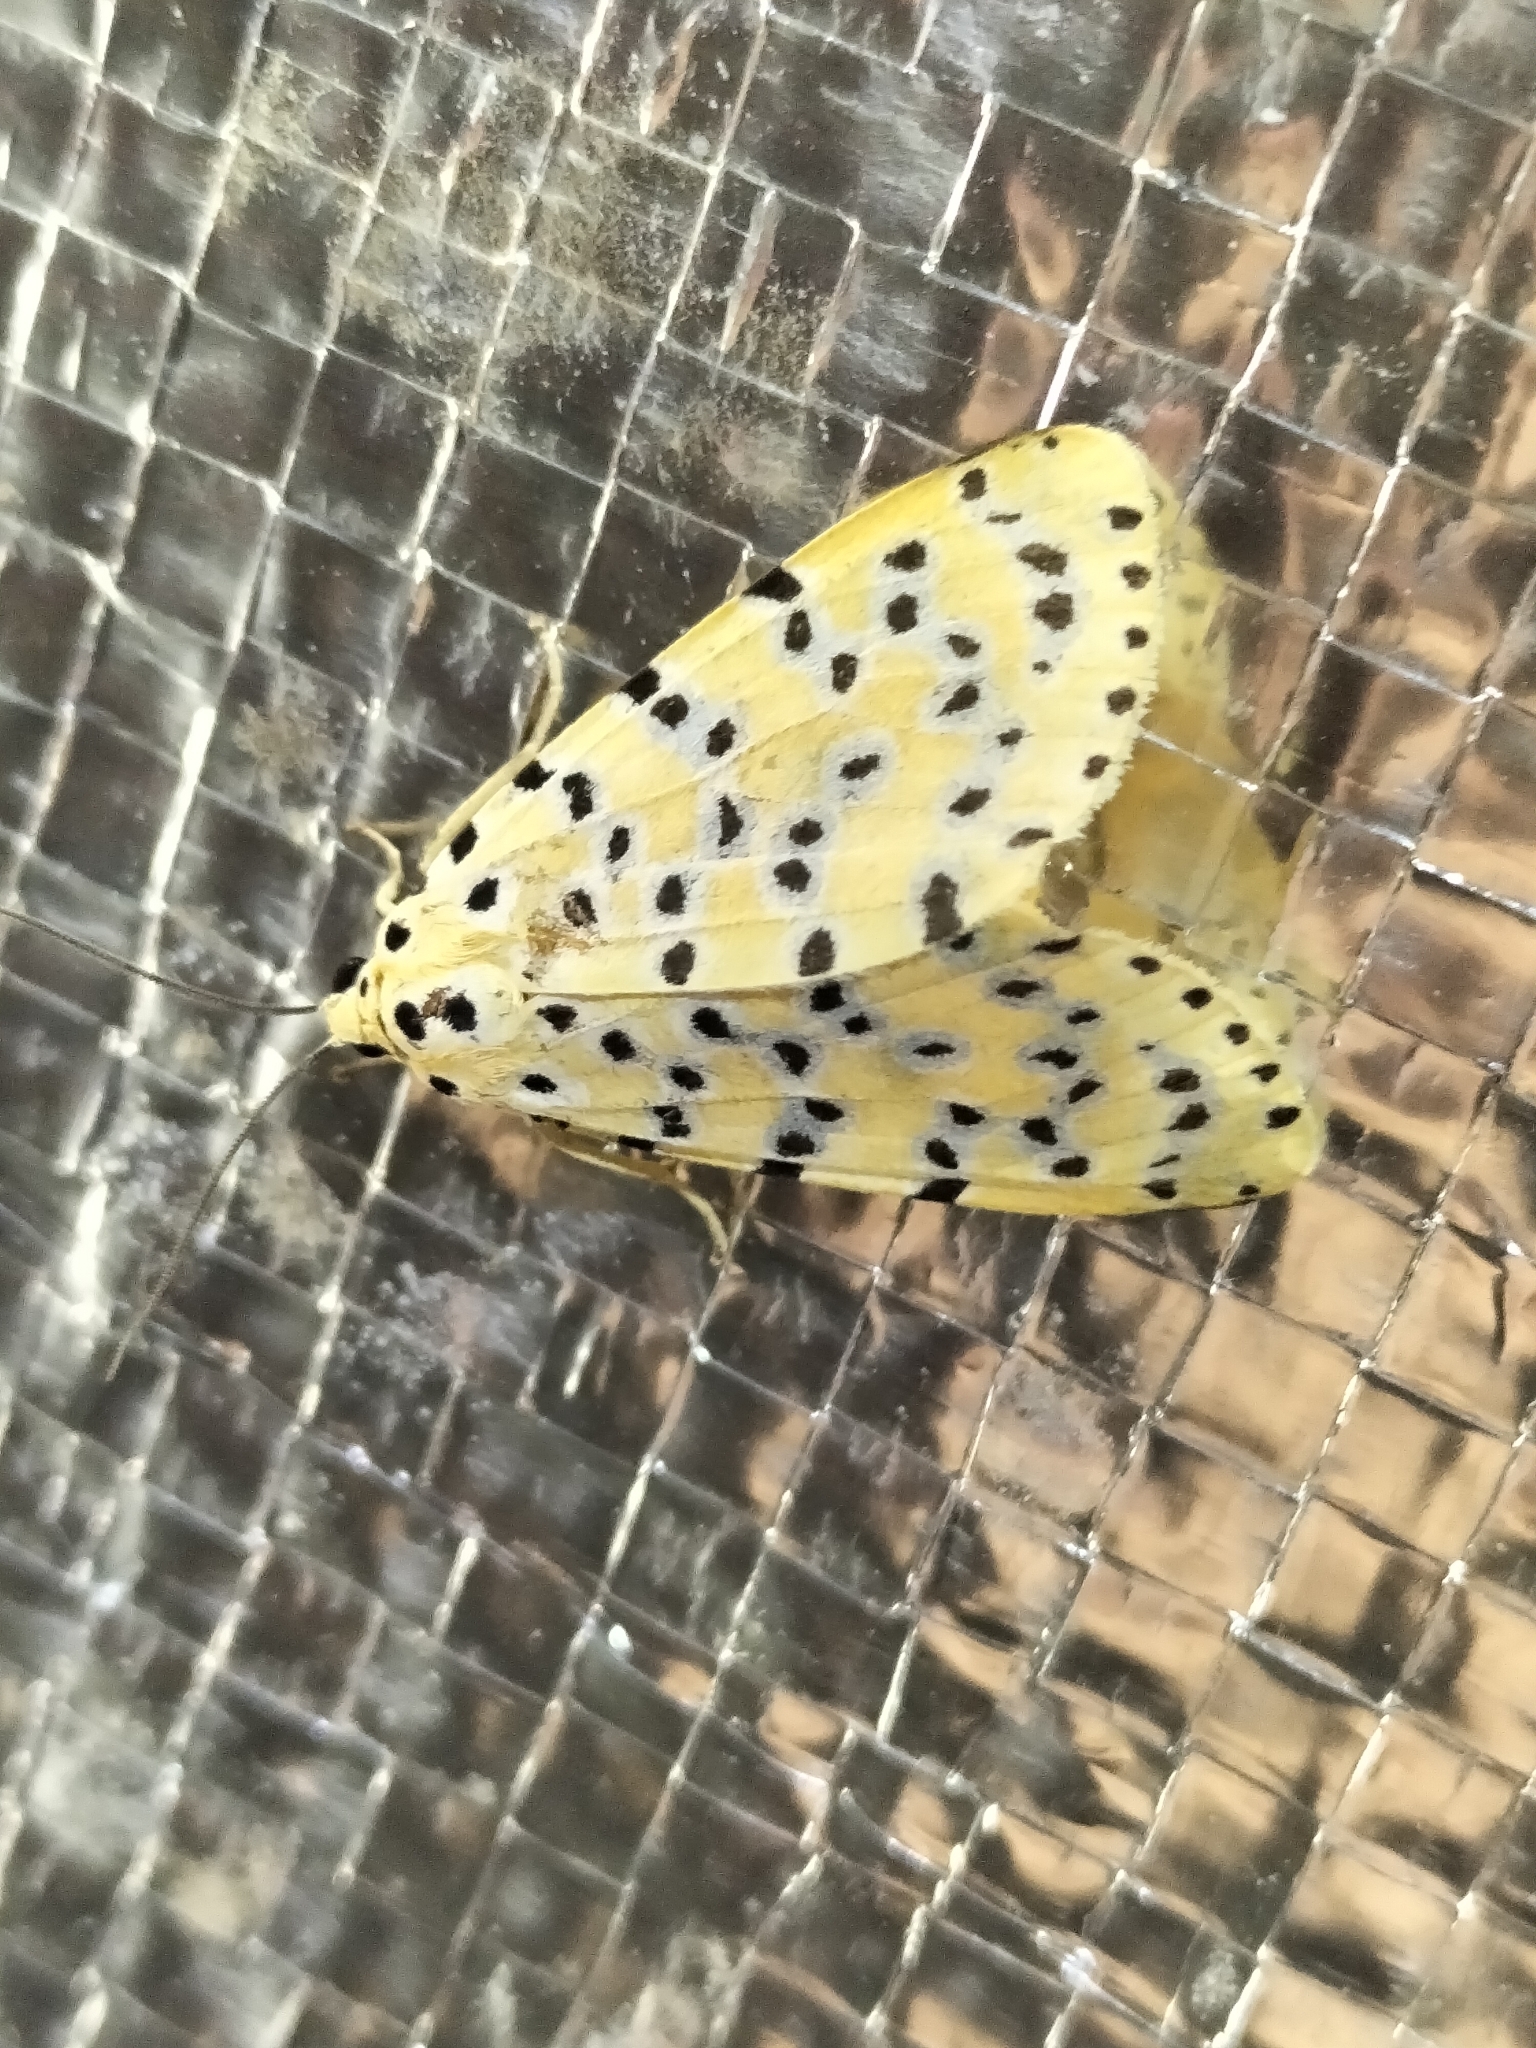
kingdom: Animalia
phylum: Arthropoda
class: Insecta
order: Lepidoptera
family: Erebidae
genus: Argina
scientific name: Argina astrea
